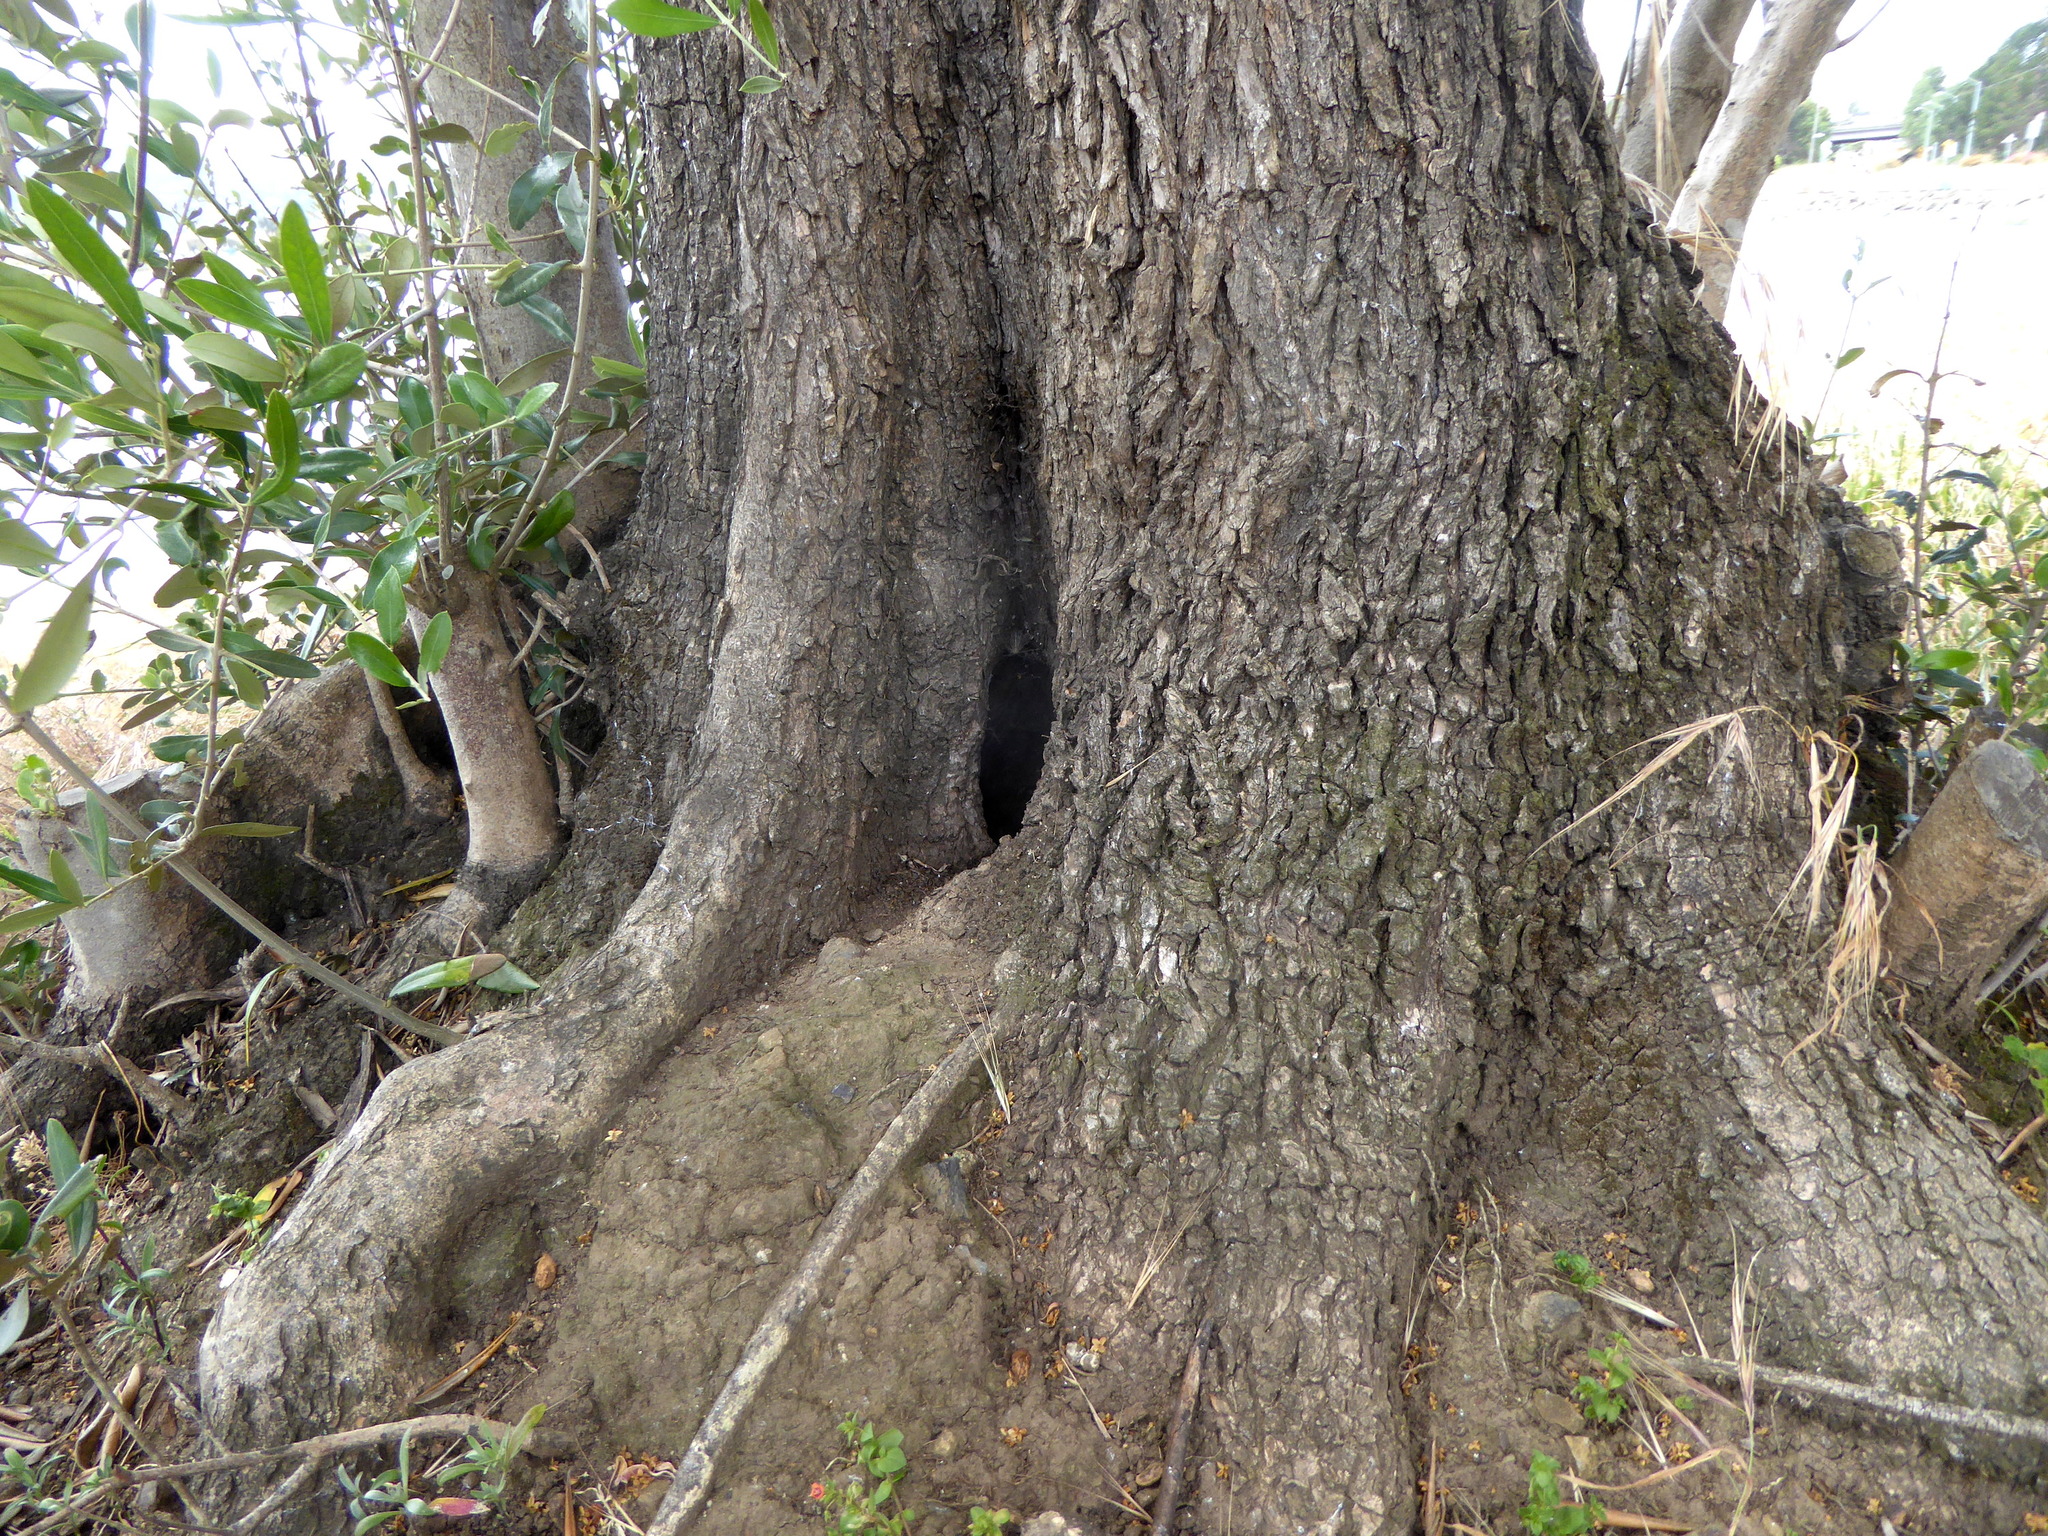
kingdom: Plantae
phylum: Tracheophyta
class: Magnoliopsida
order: Lamiales
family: Oleaceae
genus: Olea
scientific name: Olea europaea
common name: Olive
